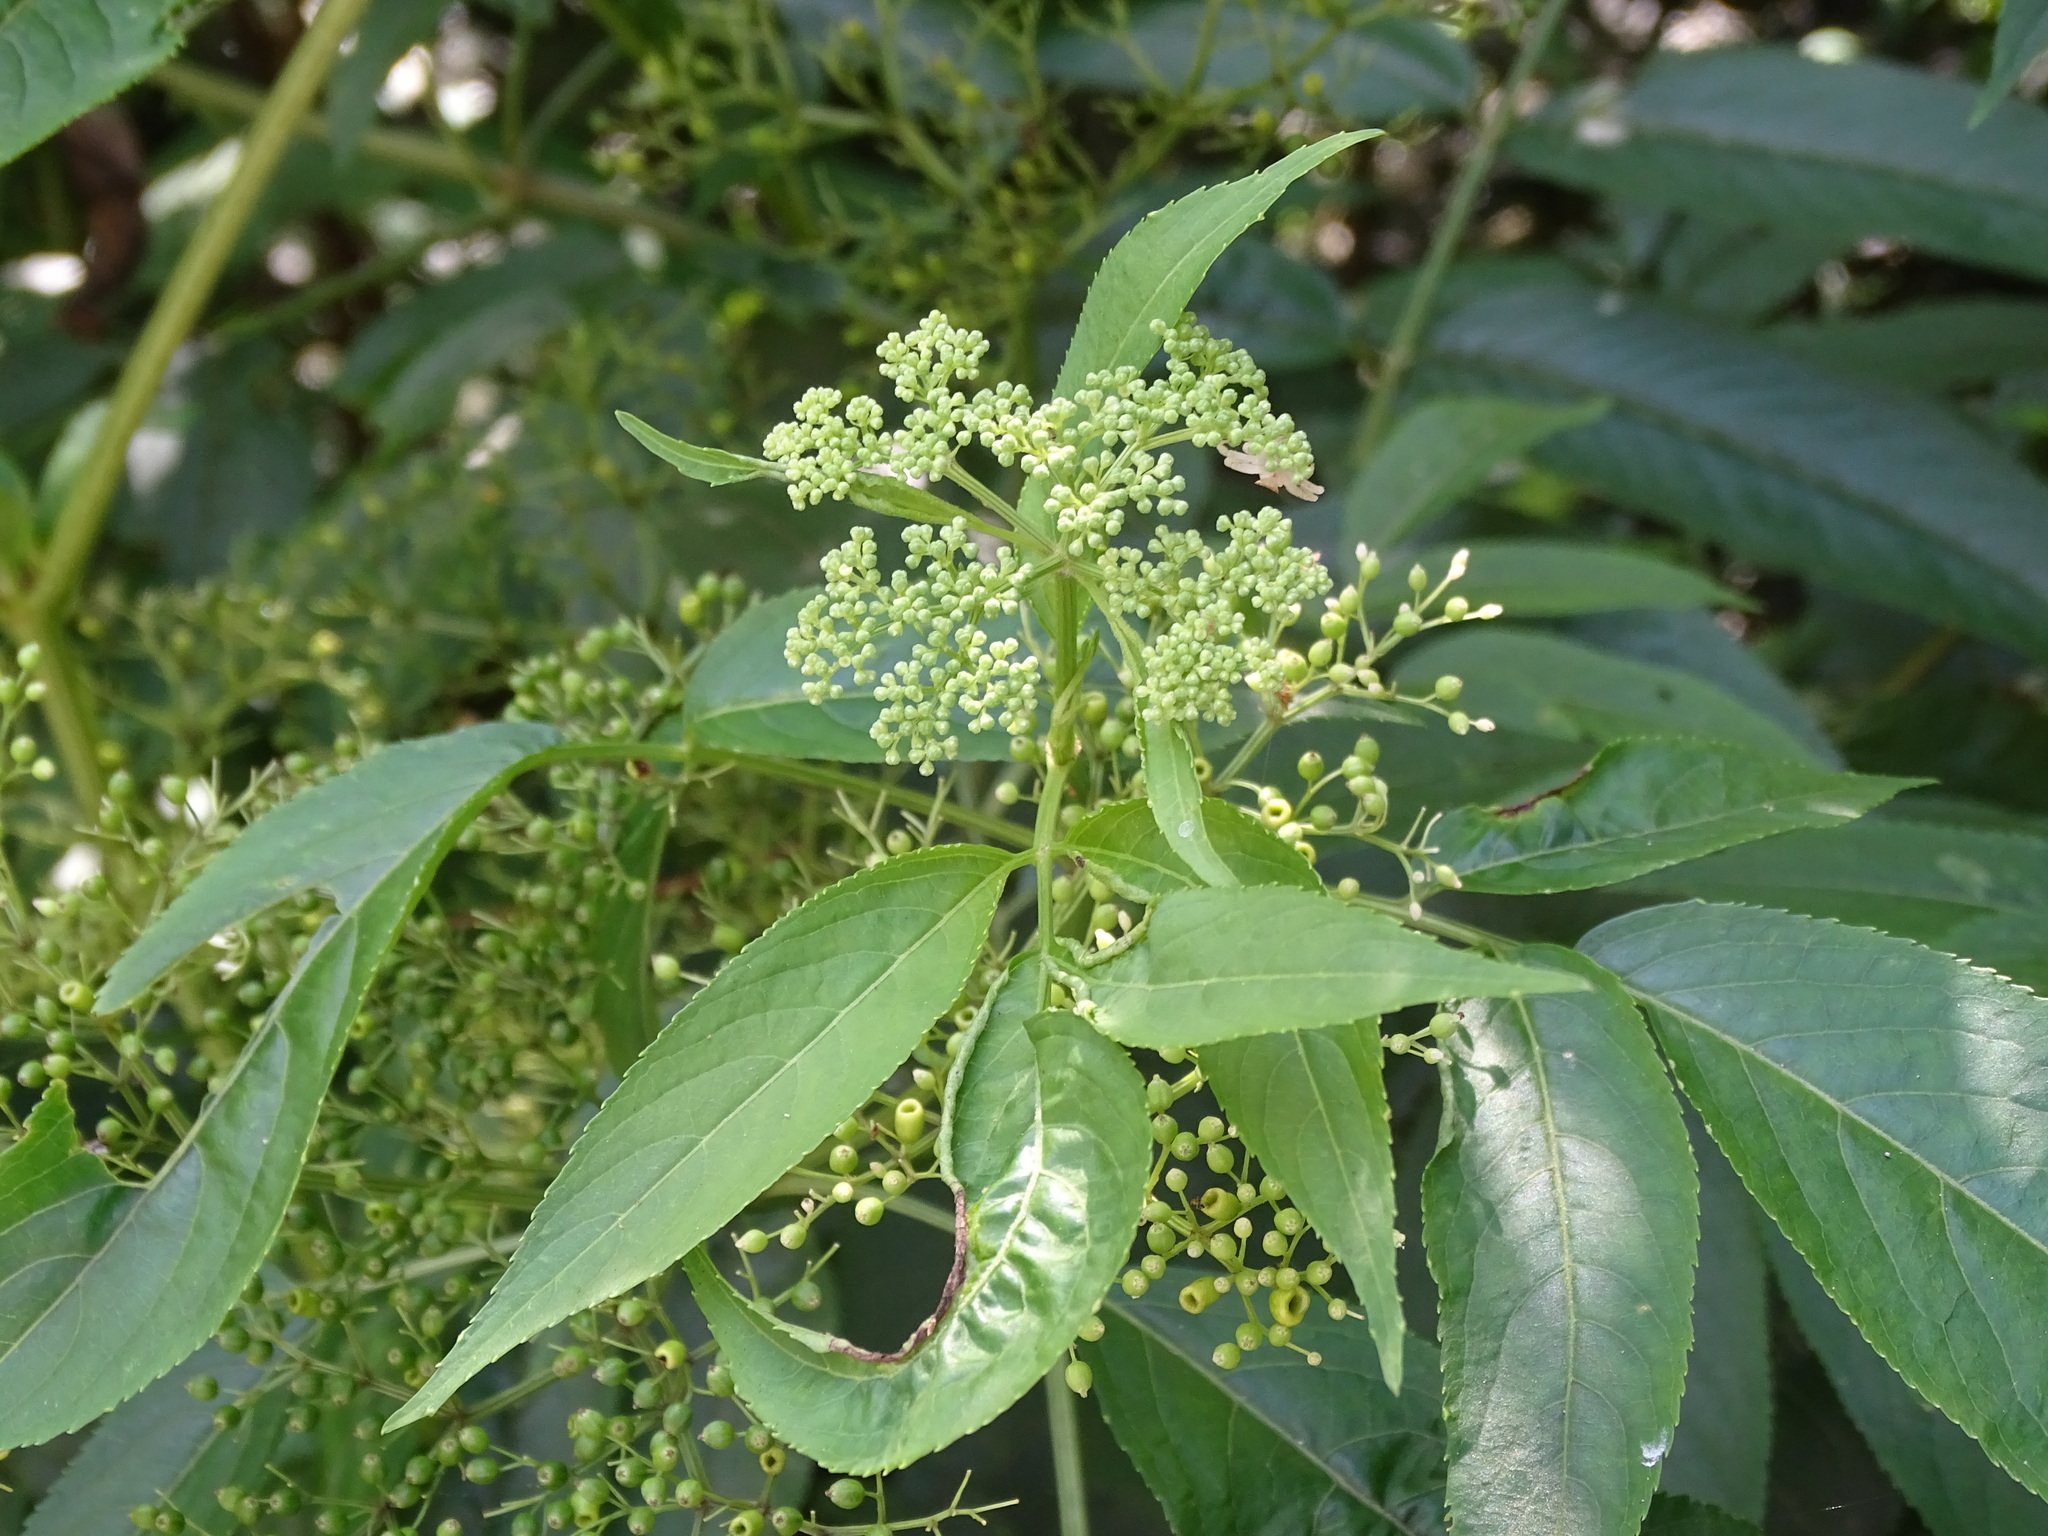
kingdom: Plantae
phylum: Tracheophyta
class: Magnoliopsida
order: Dipsacales
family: Viburnaceae
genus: Sambucus
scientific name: Sambucus javanica
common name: Chinese elder
